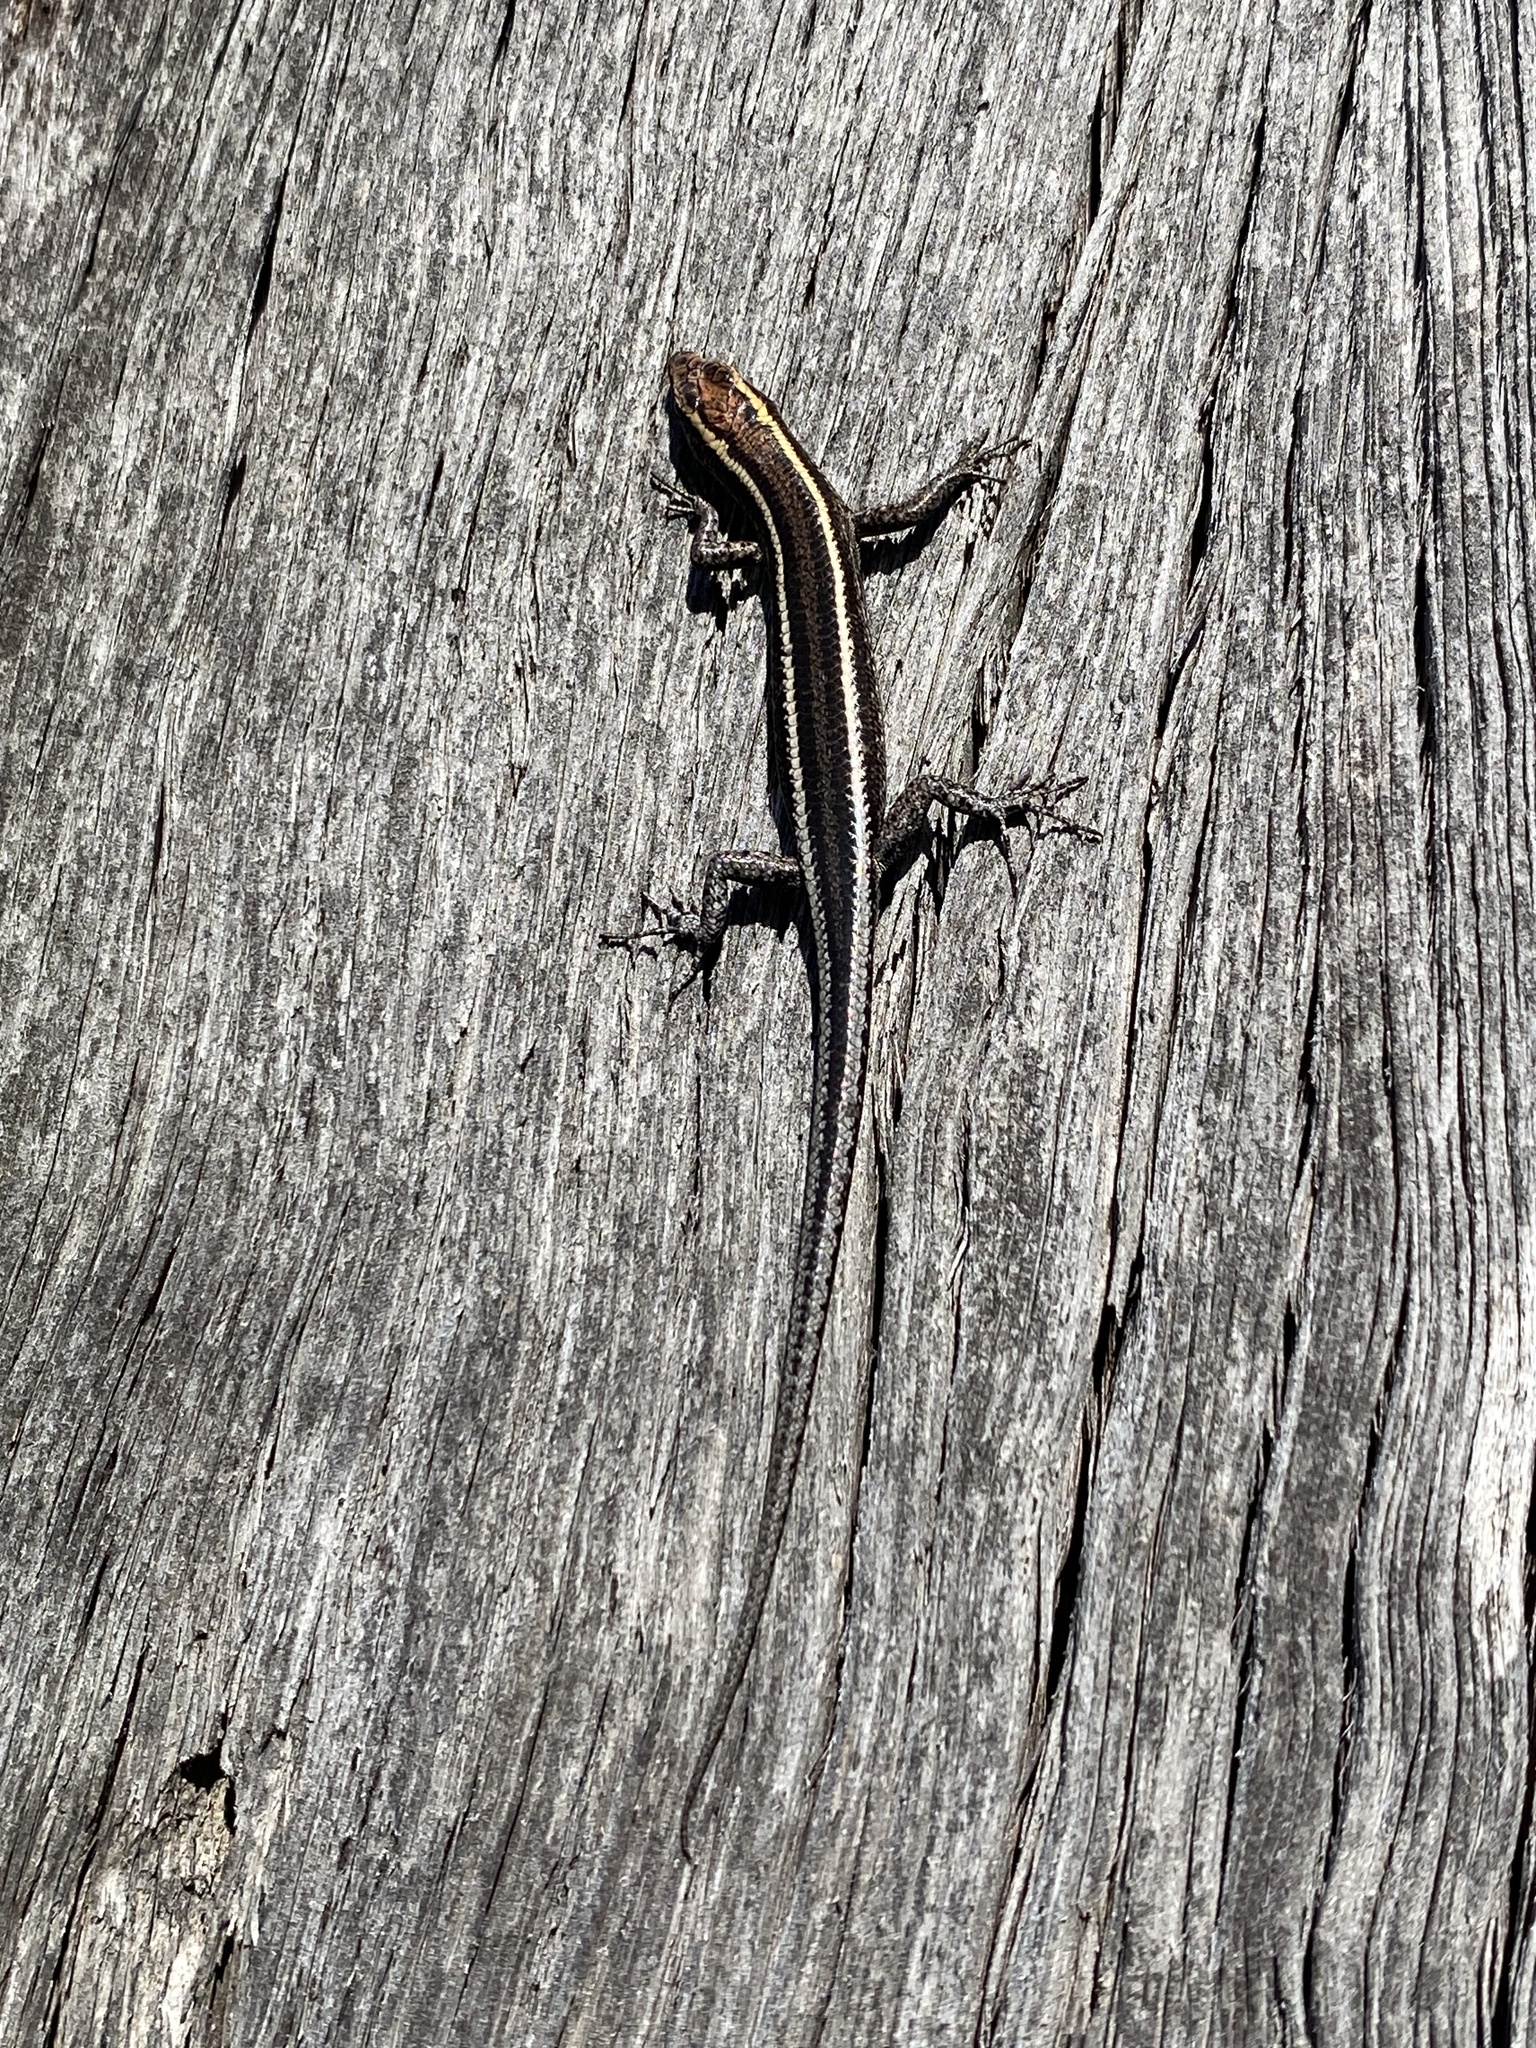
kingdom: Animalia
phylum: Chordata
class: Squamata
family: Scincidae
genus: Cryptoblepharus
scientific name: Cryptoblepharus pulcher
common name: Elegant snake-eyed skink
